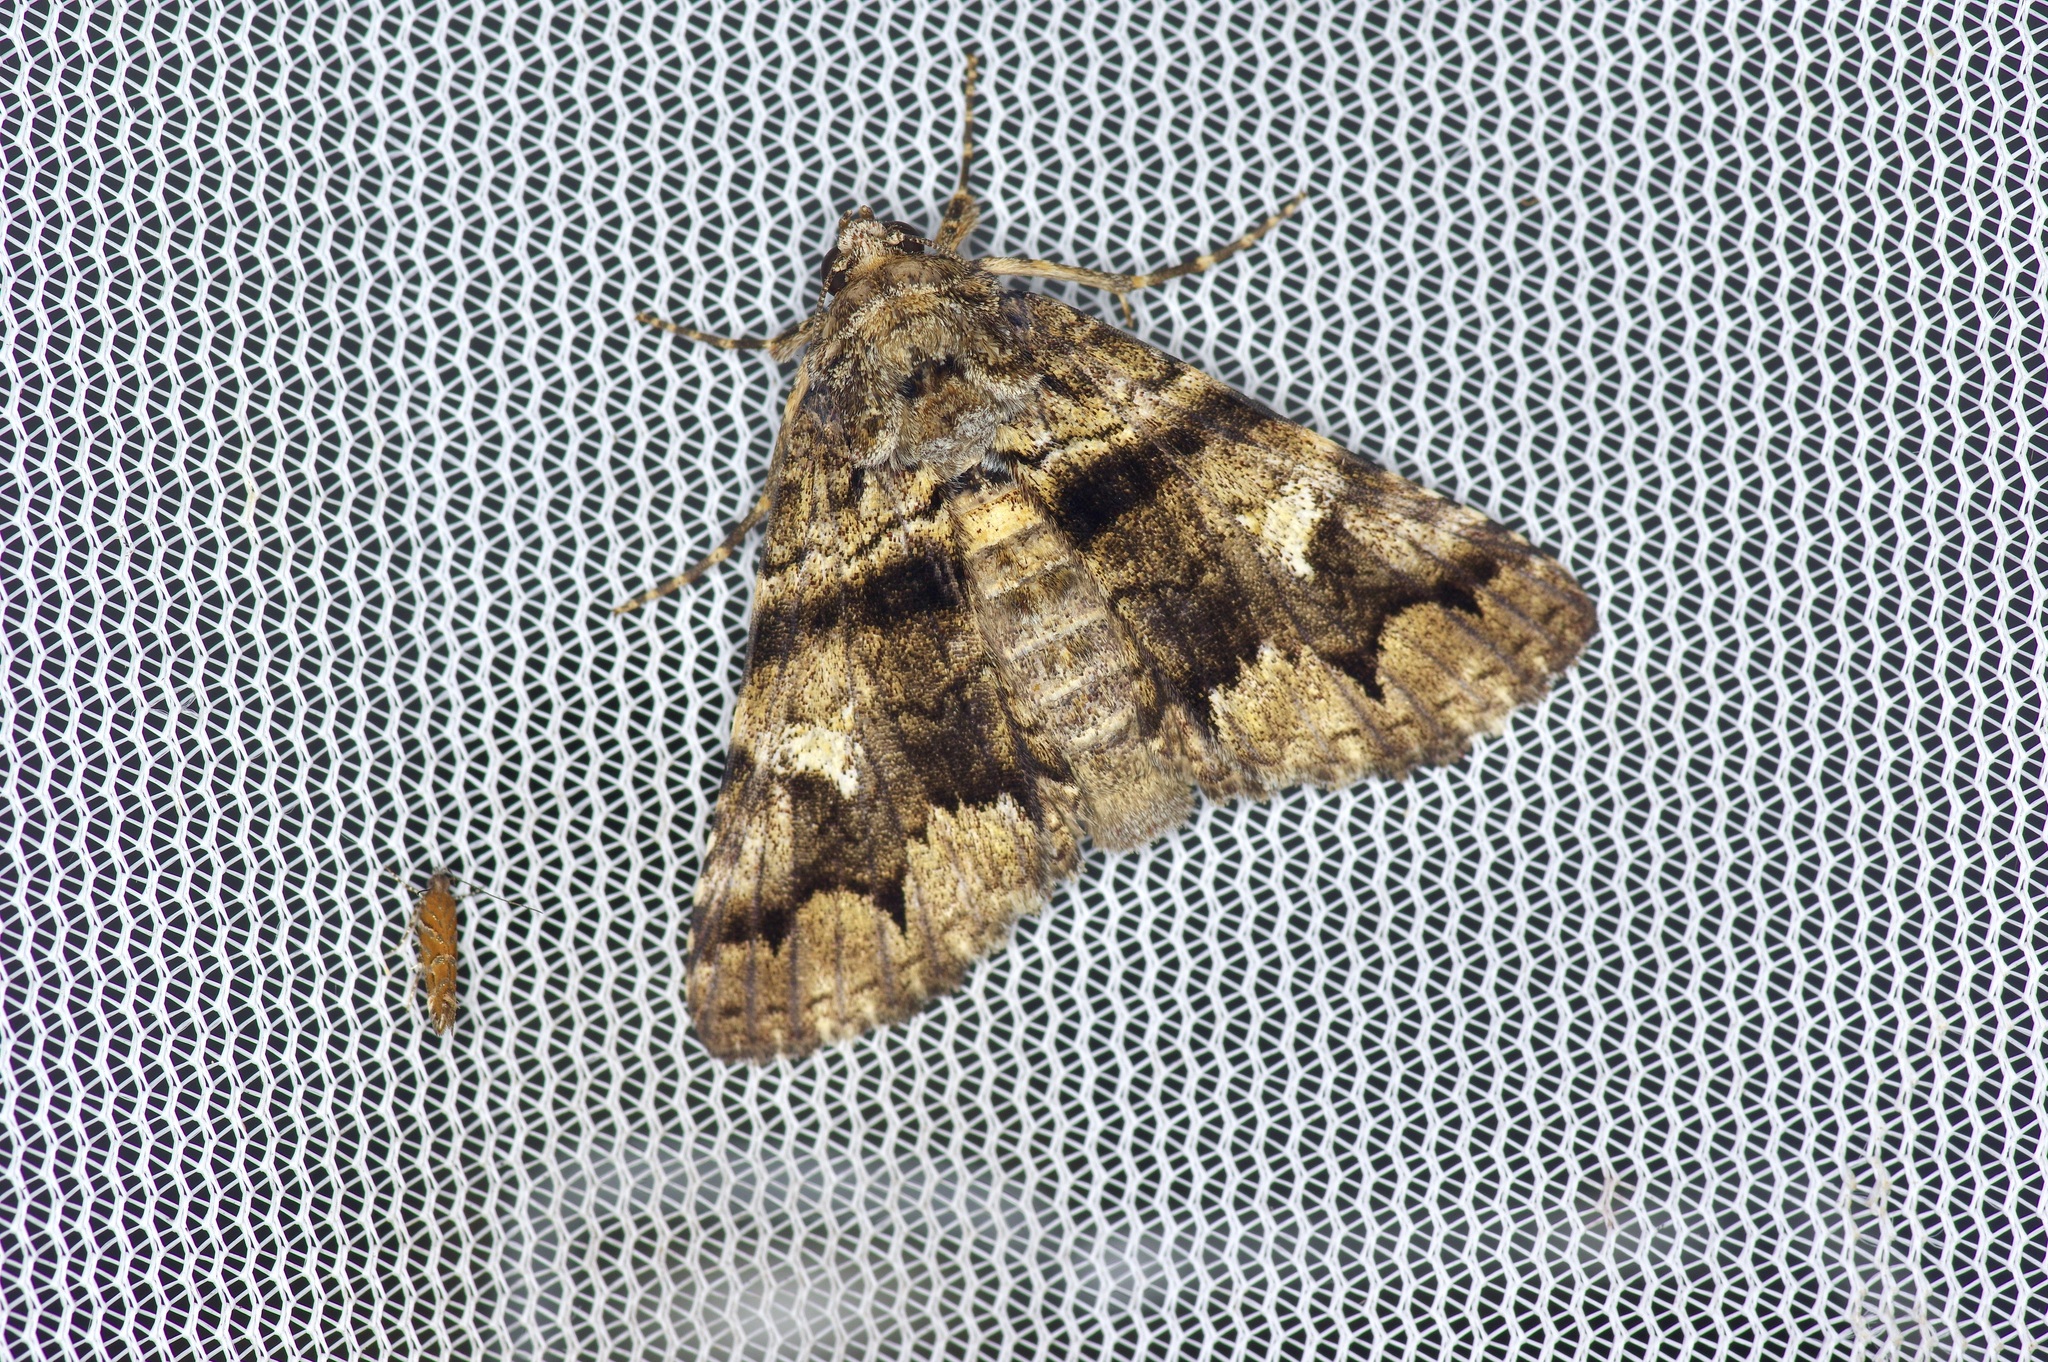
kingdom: Animalia
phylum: Arthropoda
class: Insecta
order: Lepidoptera
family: Erebidae
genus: Metria
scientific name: Metria amella
